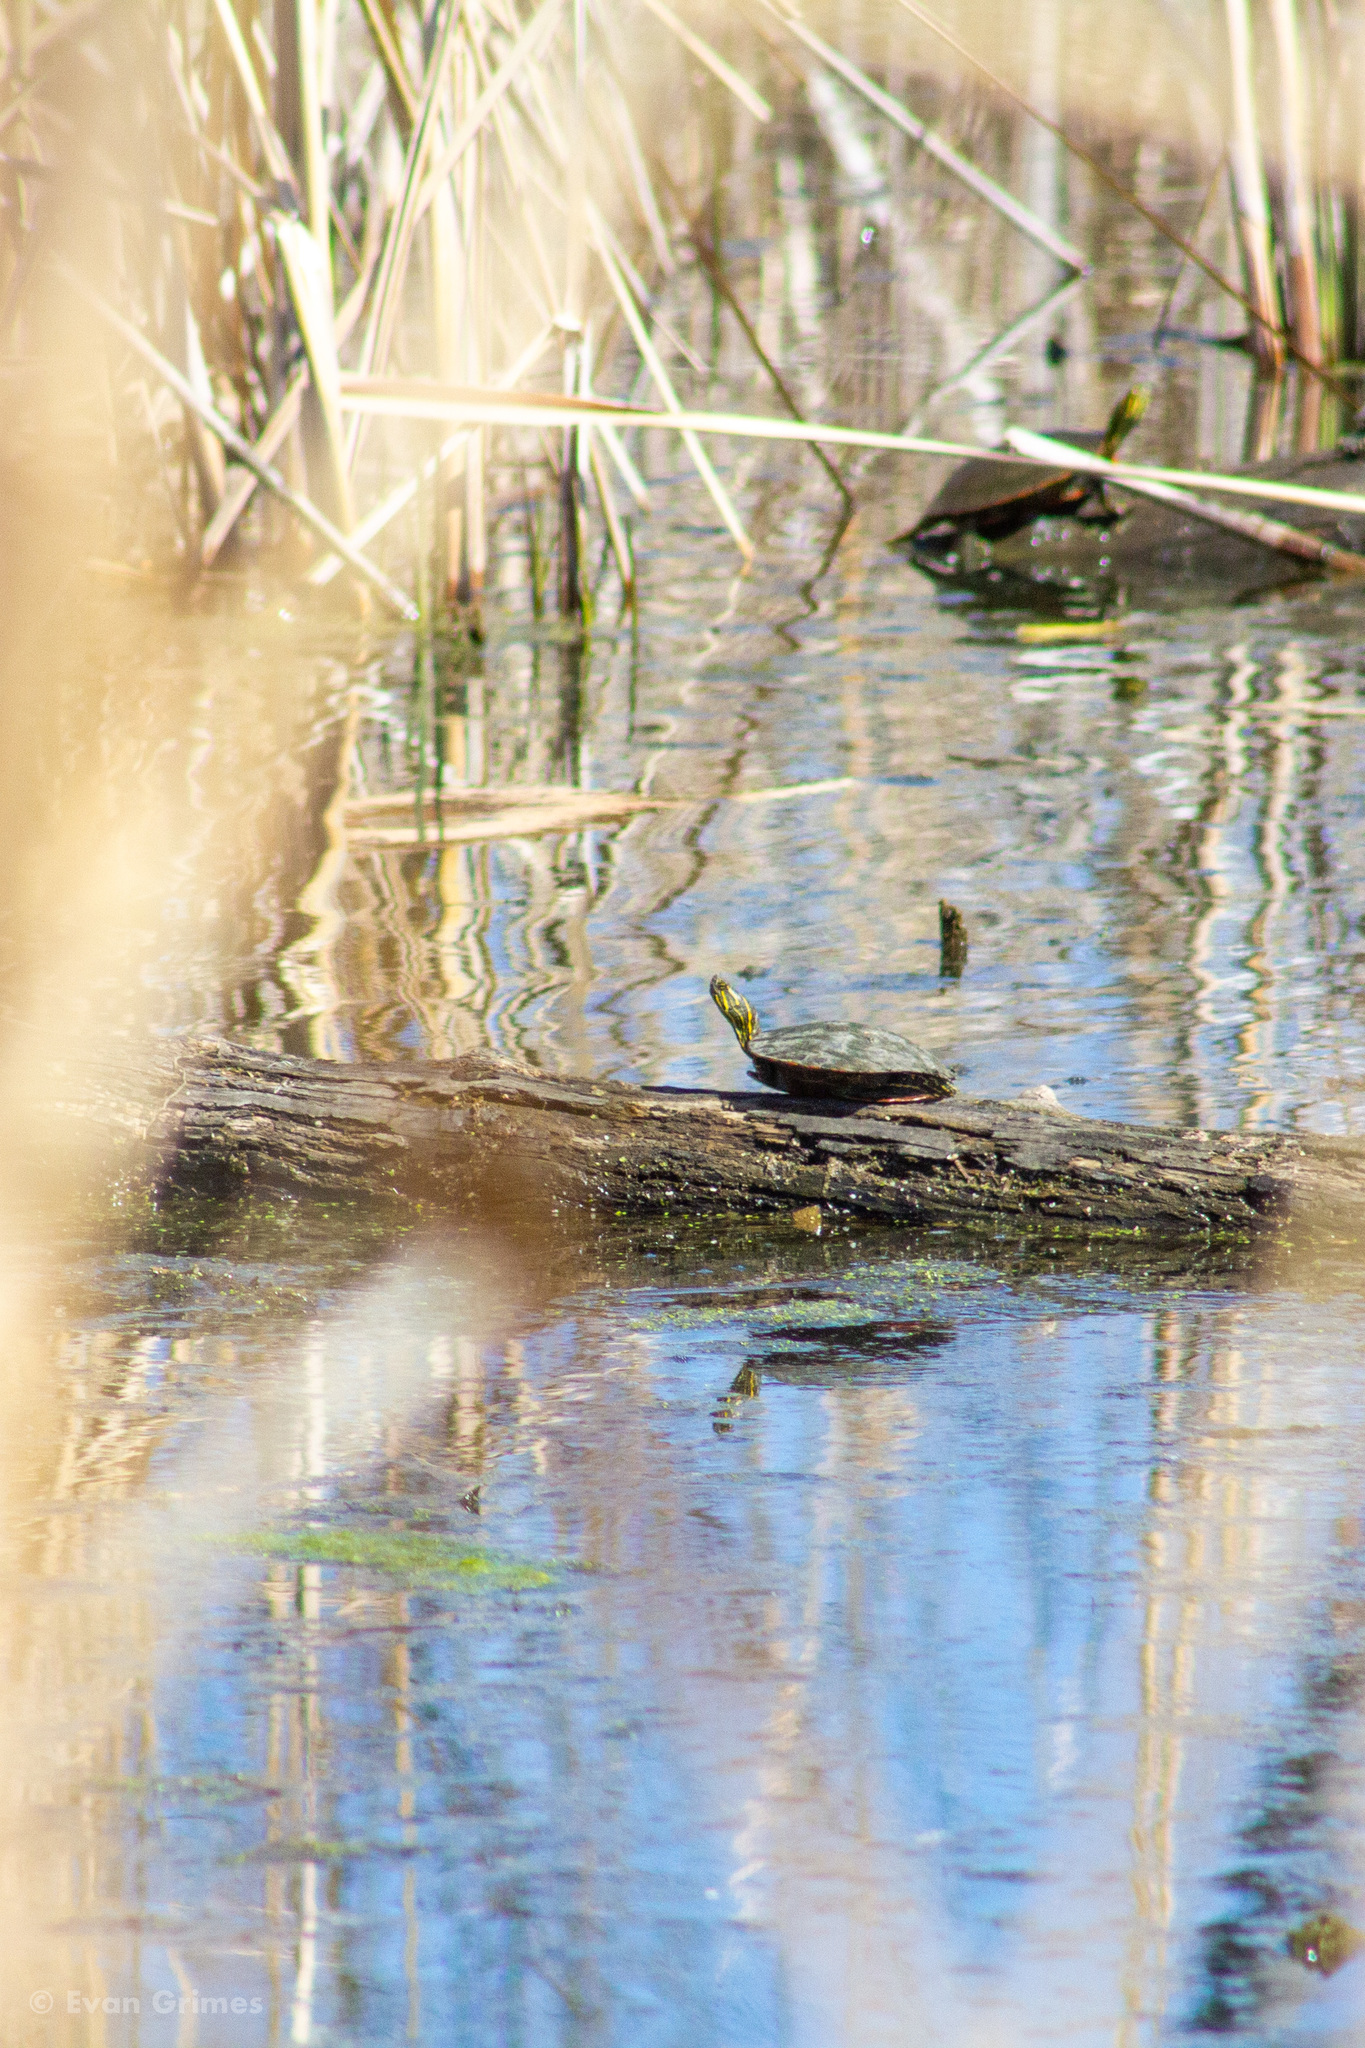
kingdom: Animalia
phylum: Chordata
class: Testudines
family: Emydidae
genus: Chrysemys
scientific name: Chrysemys picta
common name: Painted turtle
